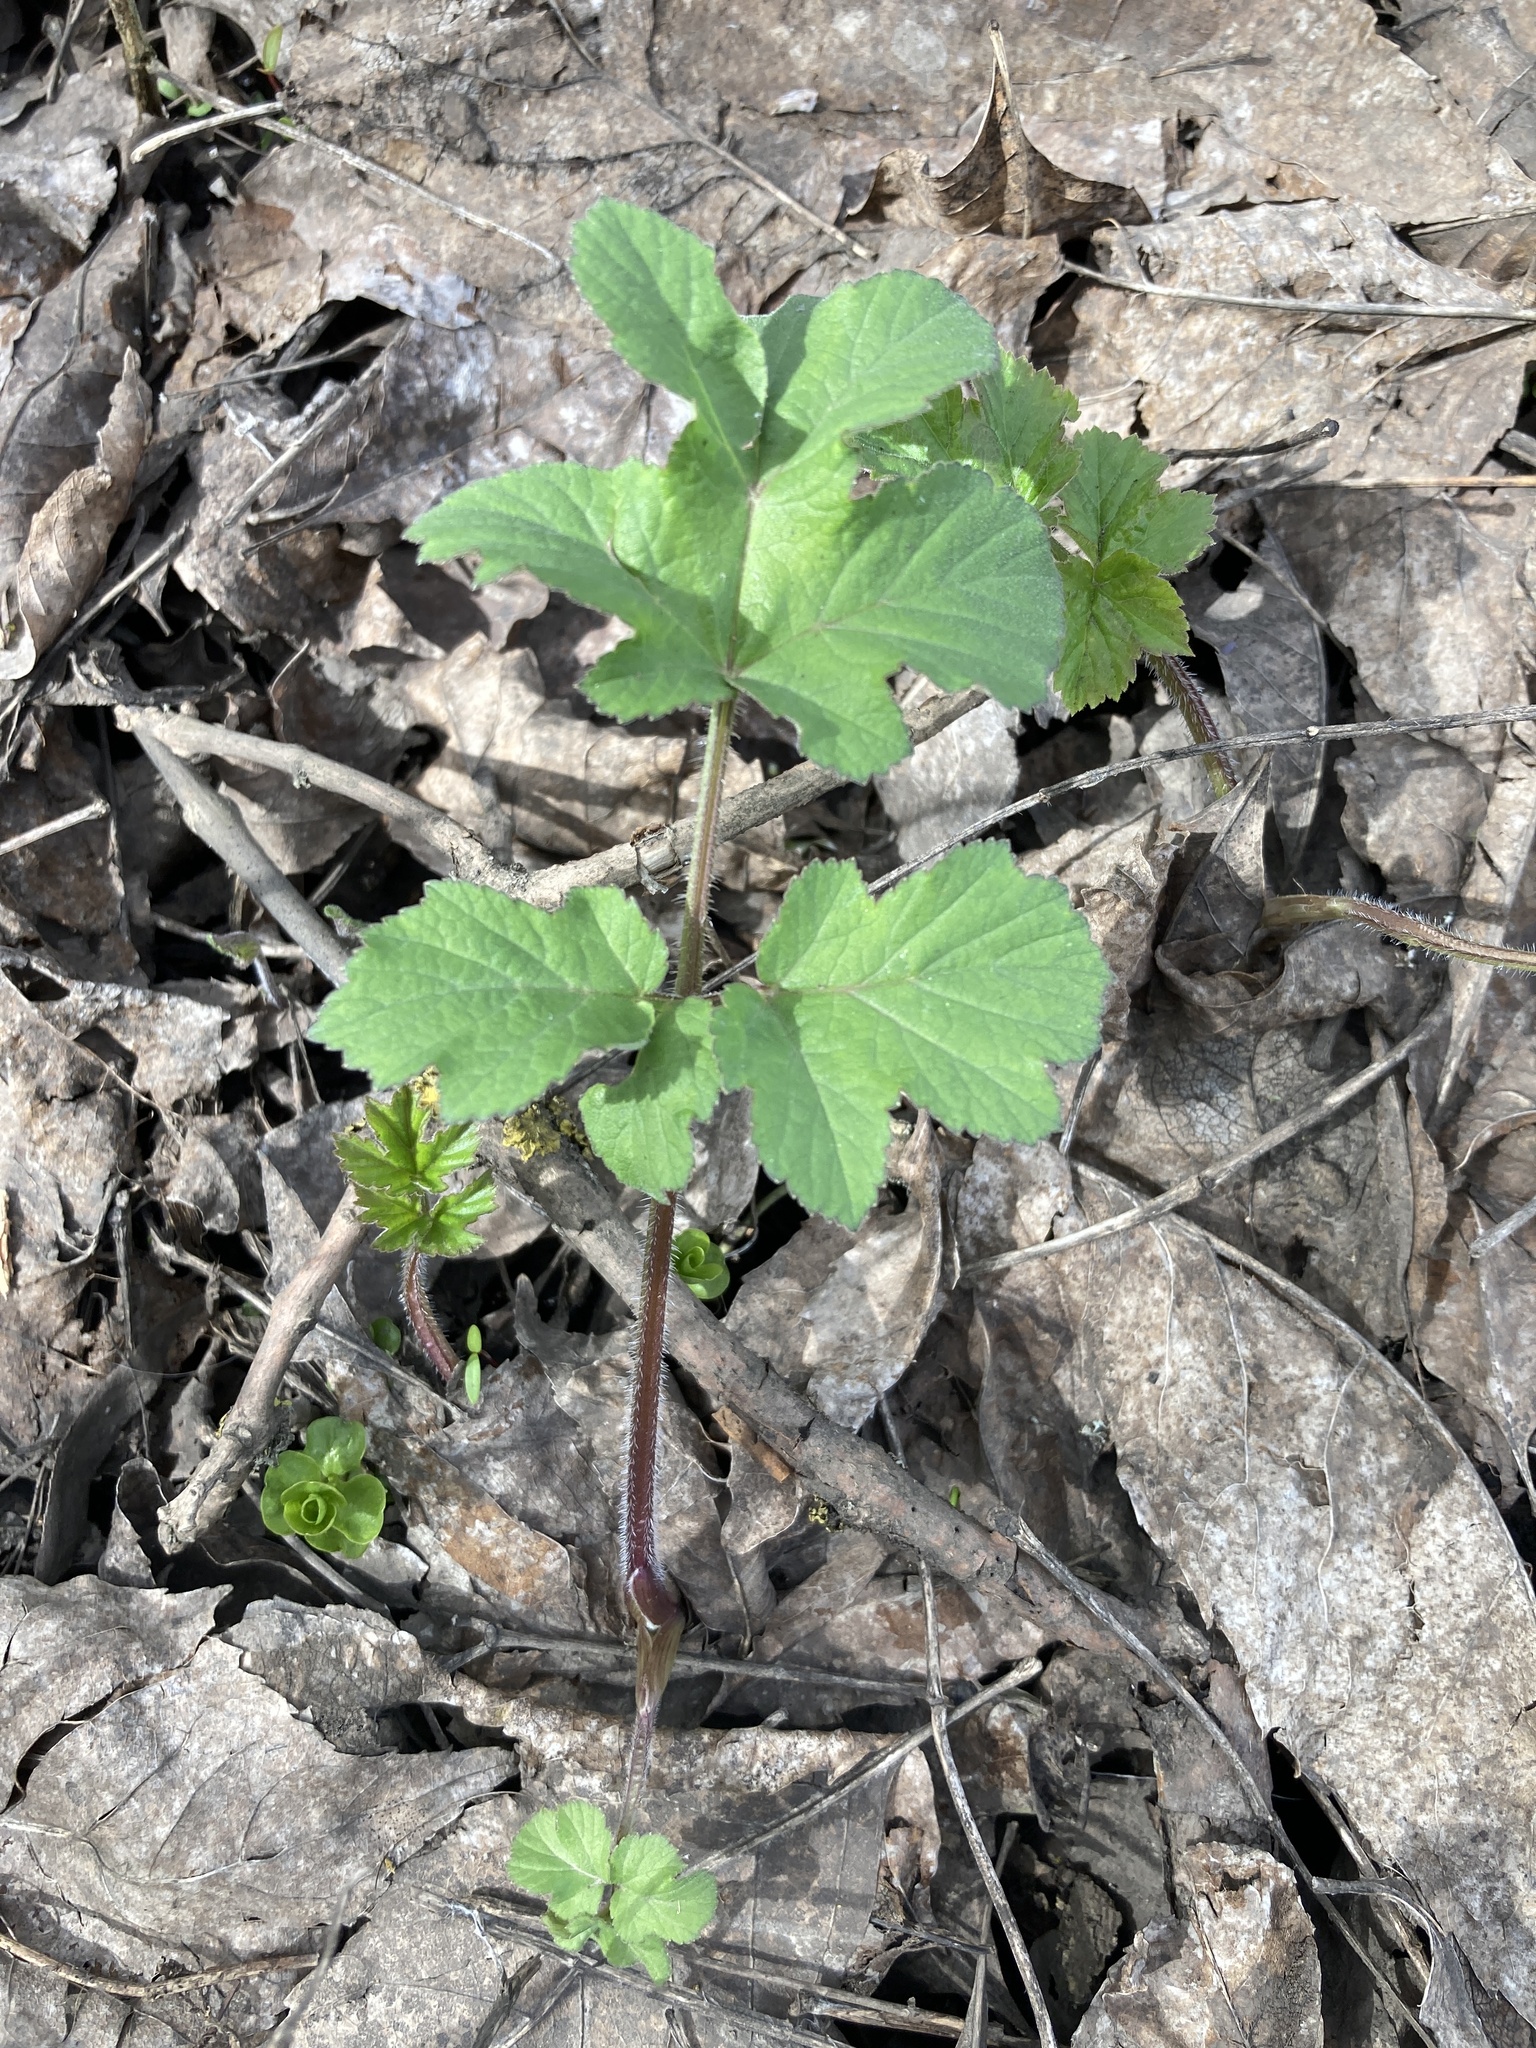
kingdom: Plantae
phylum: Tracheophyta
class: Magnoliopsida
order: Apiales
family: Apiaceae
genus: Heracleum
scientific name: Heracleum sphondylium
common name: Hogweed
